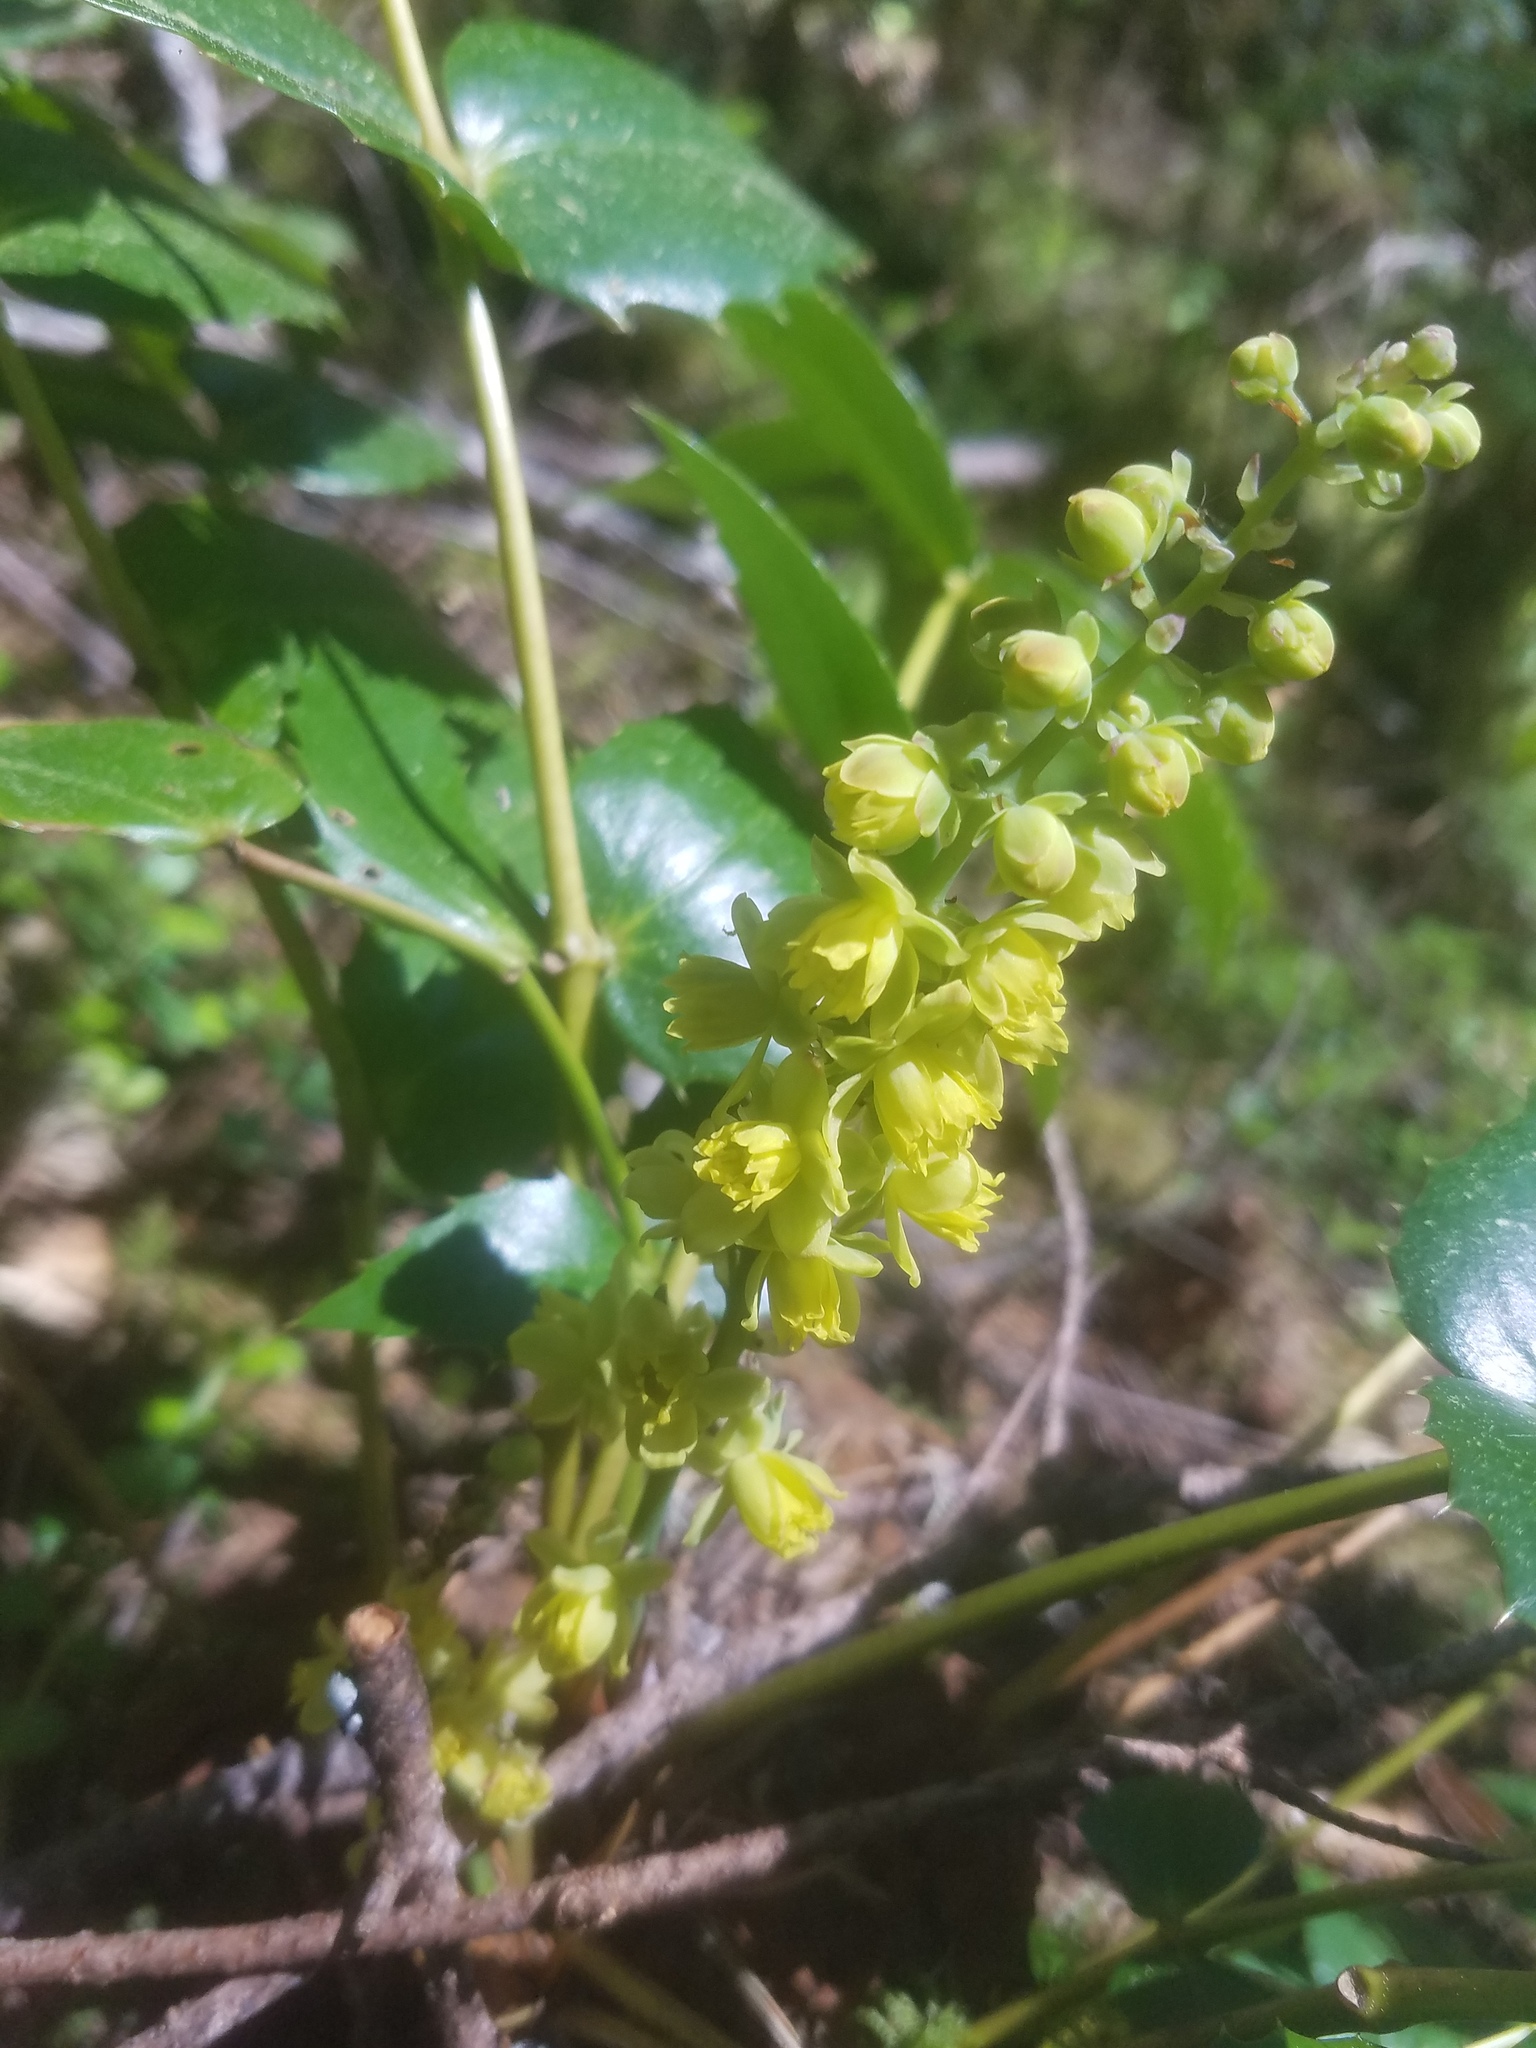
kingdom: Plantae
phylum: Tracheophyta
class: Magnoliopsida
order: Ranunculales
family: Berberidaceae
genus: Mahonia
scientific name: Mahonia nervosa
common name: Cascade oregon-grape
